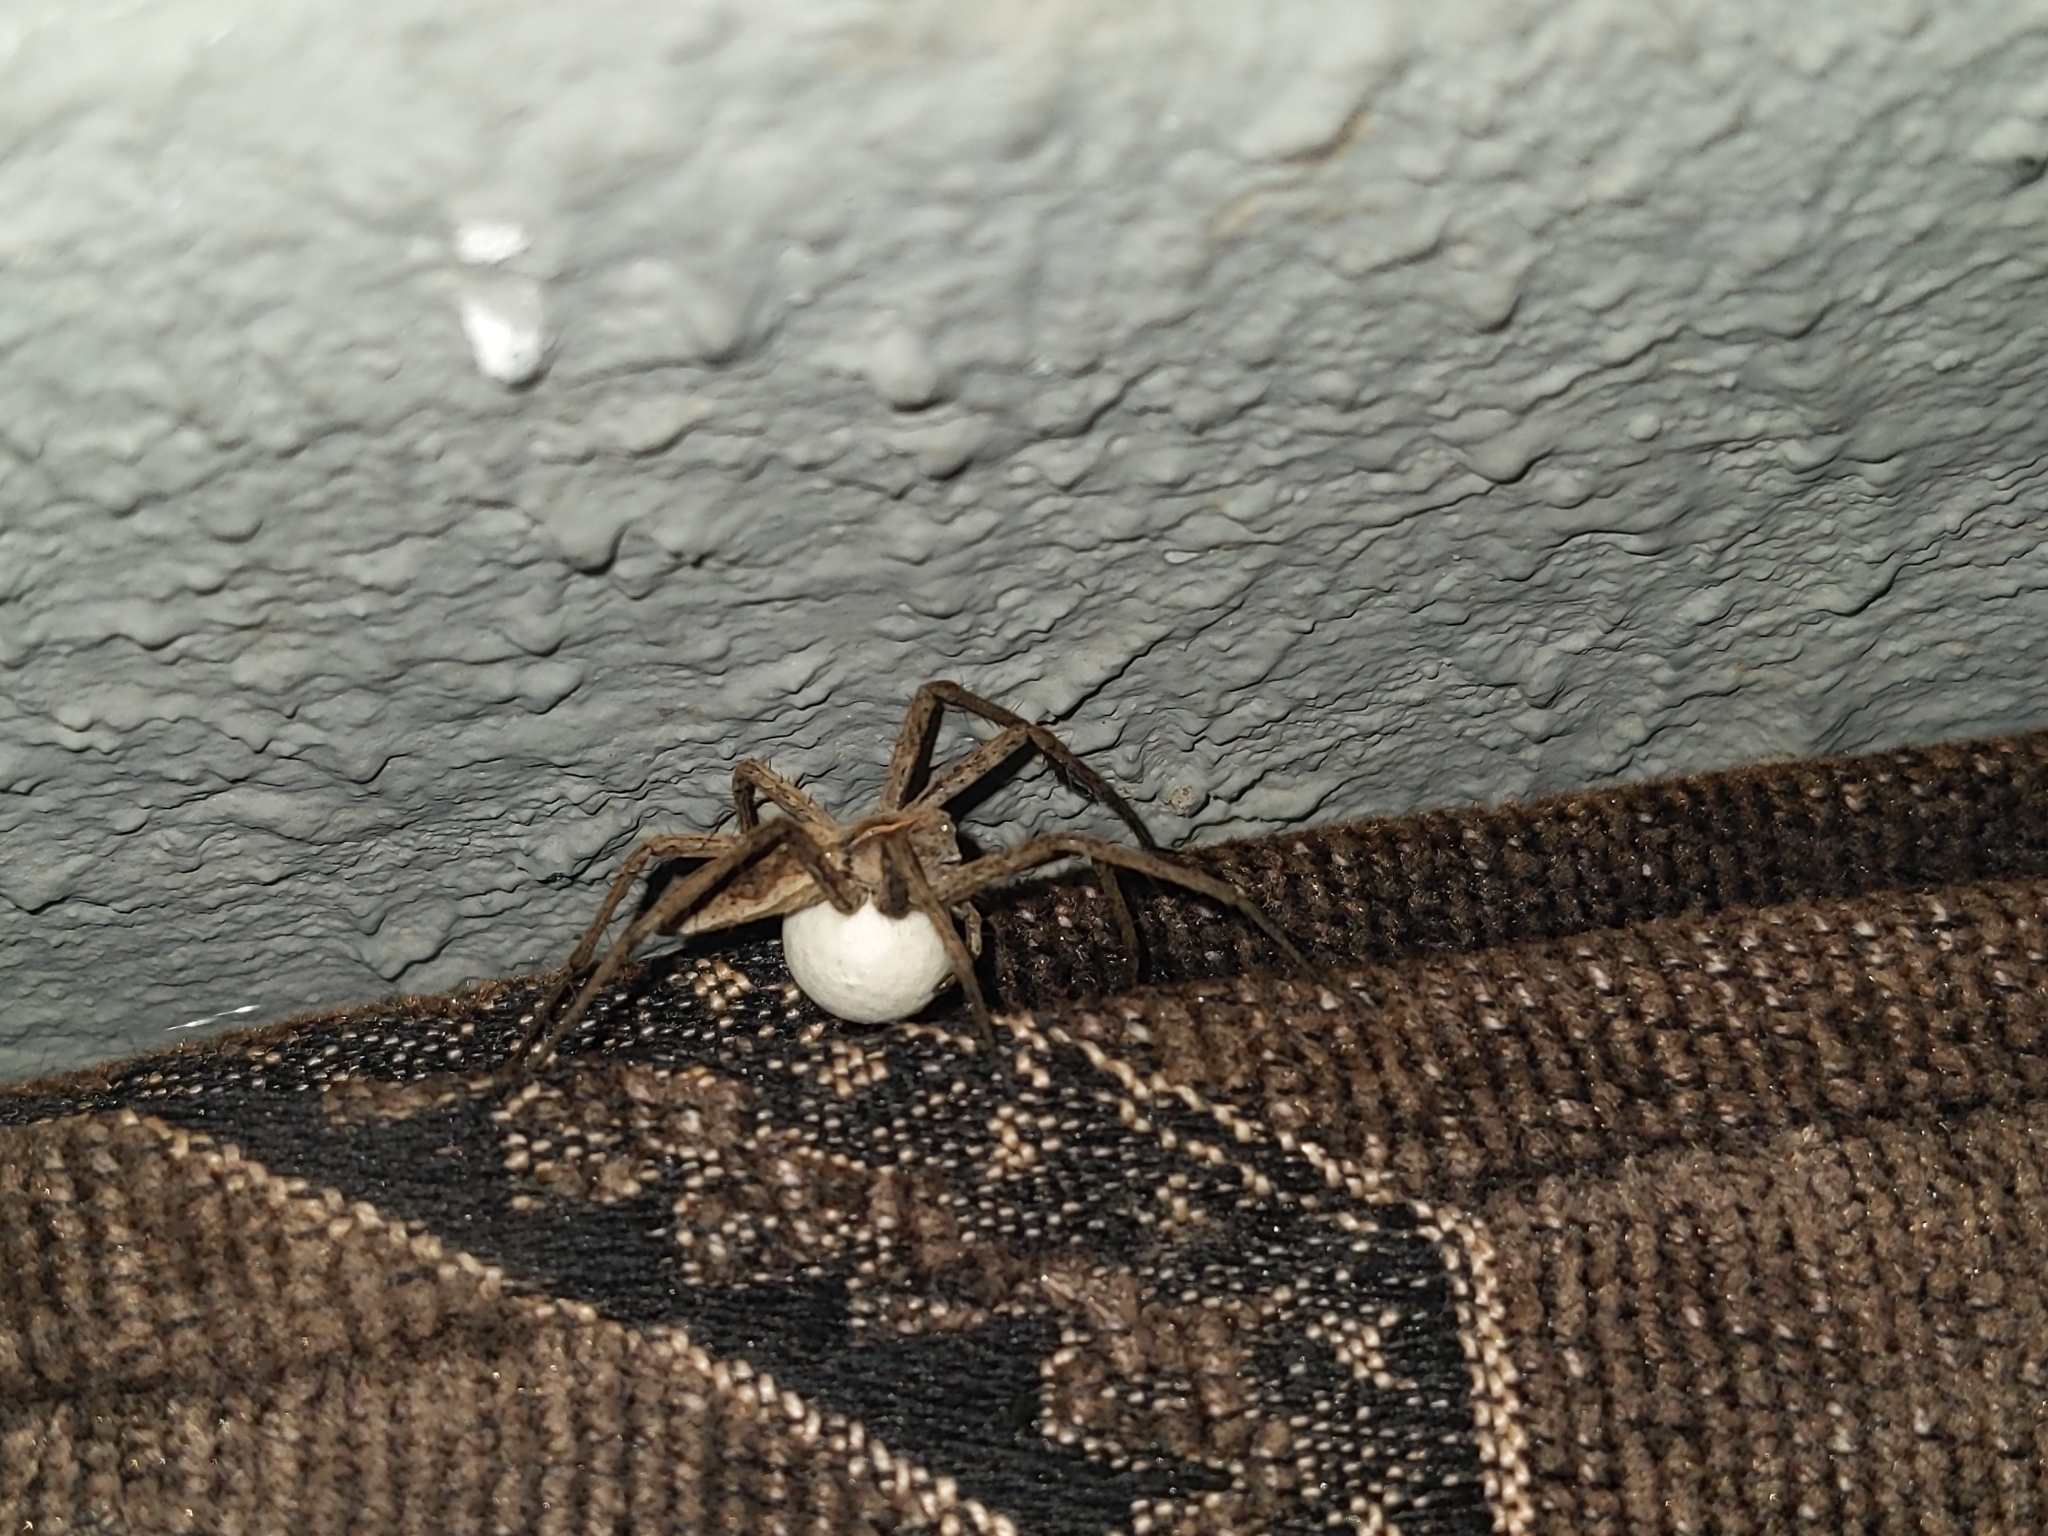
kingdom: Animalia
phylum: Arthropoda
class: Arachnida
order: Araneae
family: Pisauridae
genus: Pisaura
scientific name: Pisaura mirabilis
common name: Tent spider
